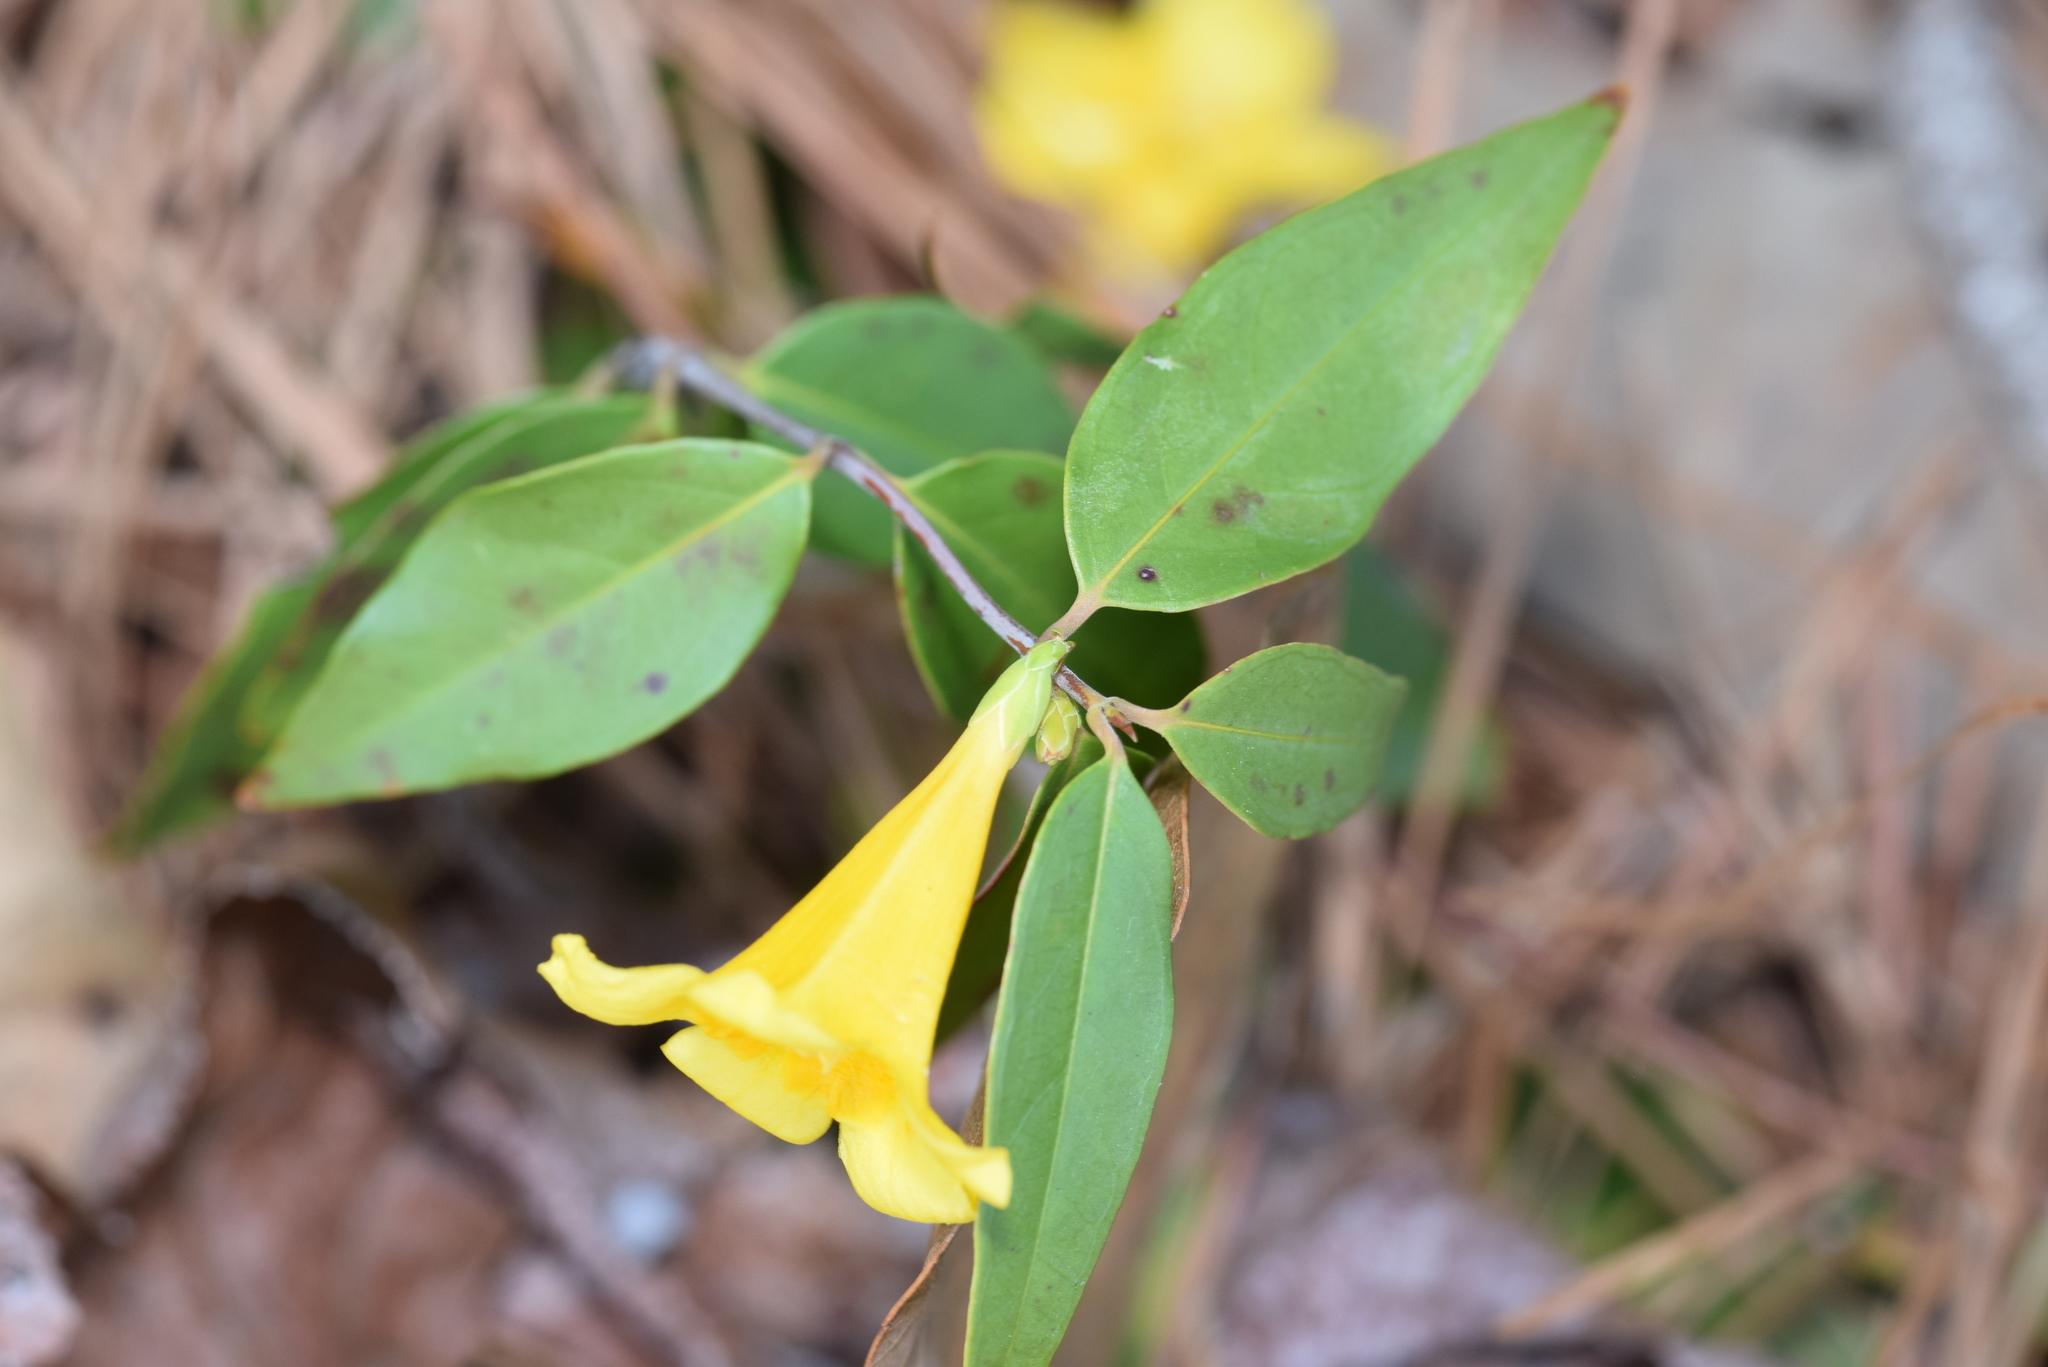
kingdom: Plantae
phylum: Tracheophyta
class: Magnoliopsida
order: Gentianales
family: Gelsemiaceae
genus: Gelsemium
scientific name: Gelsemium sempervirens
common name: Carolina-jasmine
